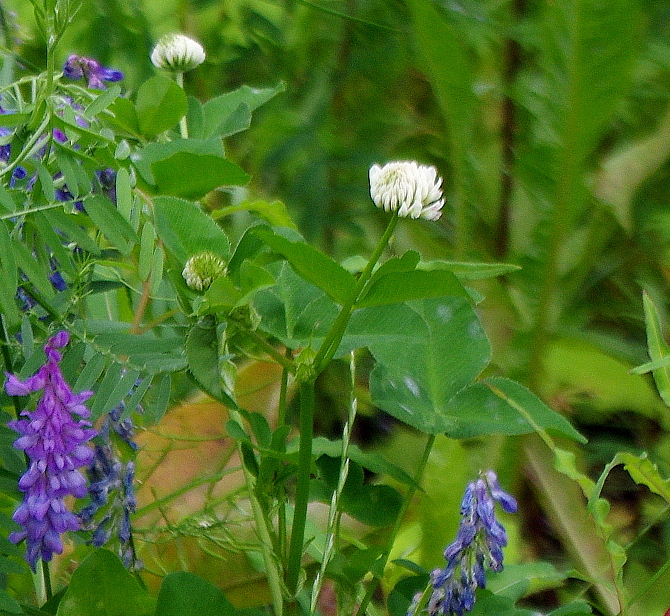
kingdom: Plantae
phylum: Tracheophyta
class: Magnoliopsida
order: Fabales
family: Fabaceae
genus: Trifolium
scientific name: Trifolium hybridum
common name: Alsike clover
